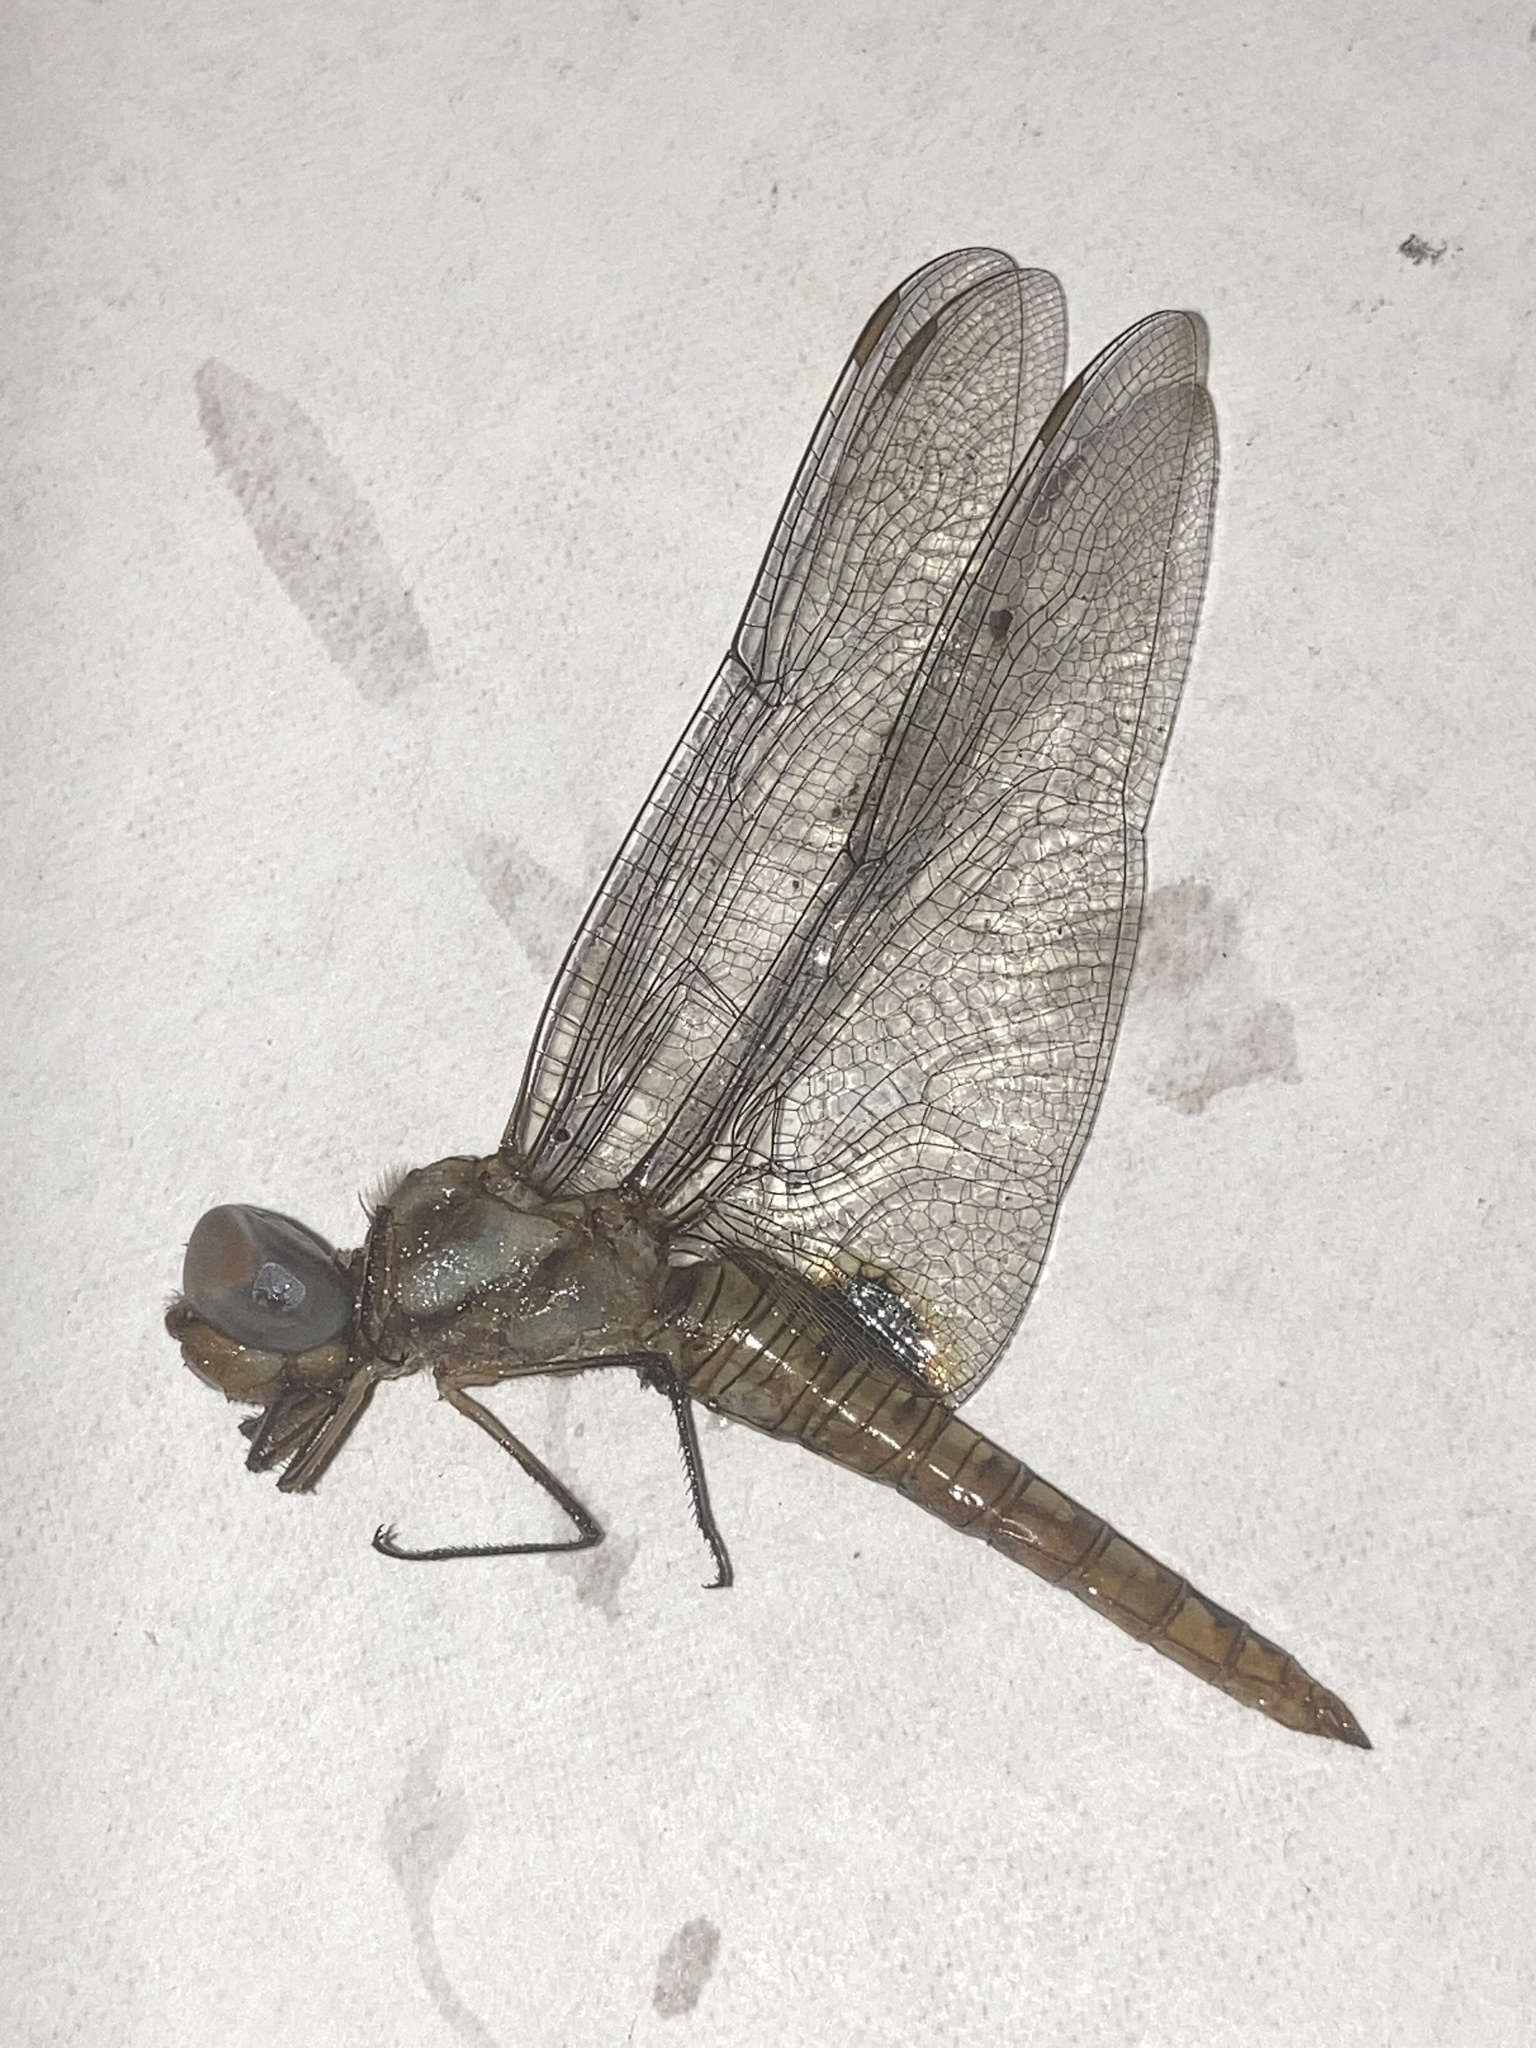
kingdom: Animalia
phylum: Arthropoda
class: Insecta
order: Odonata
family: Libellulidae
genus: Pantala
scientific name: Pantala hymenaea
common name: Spot-winged glider
